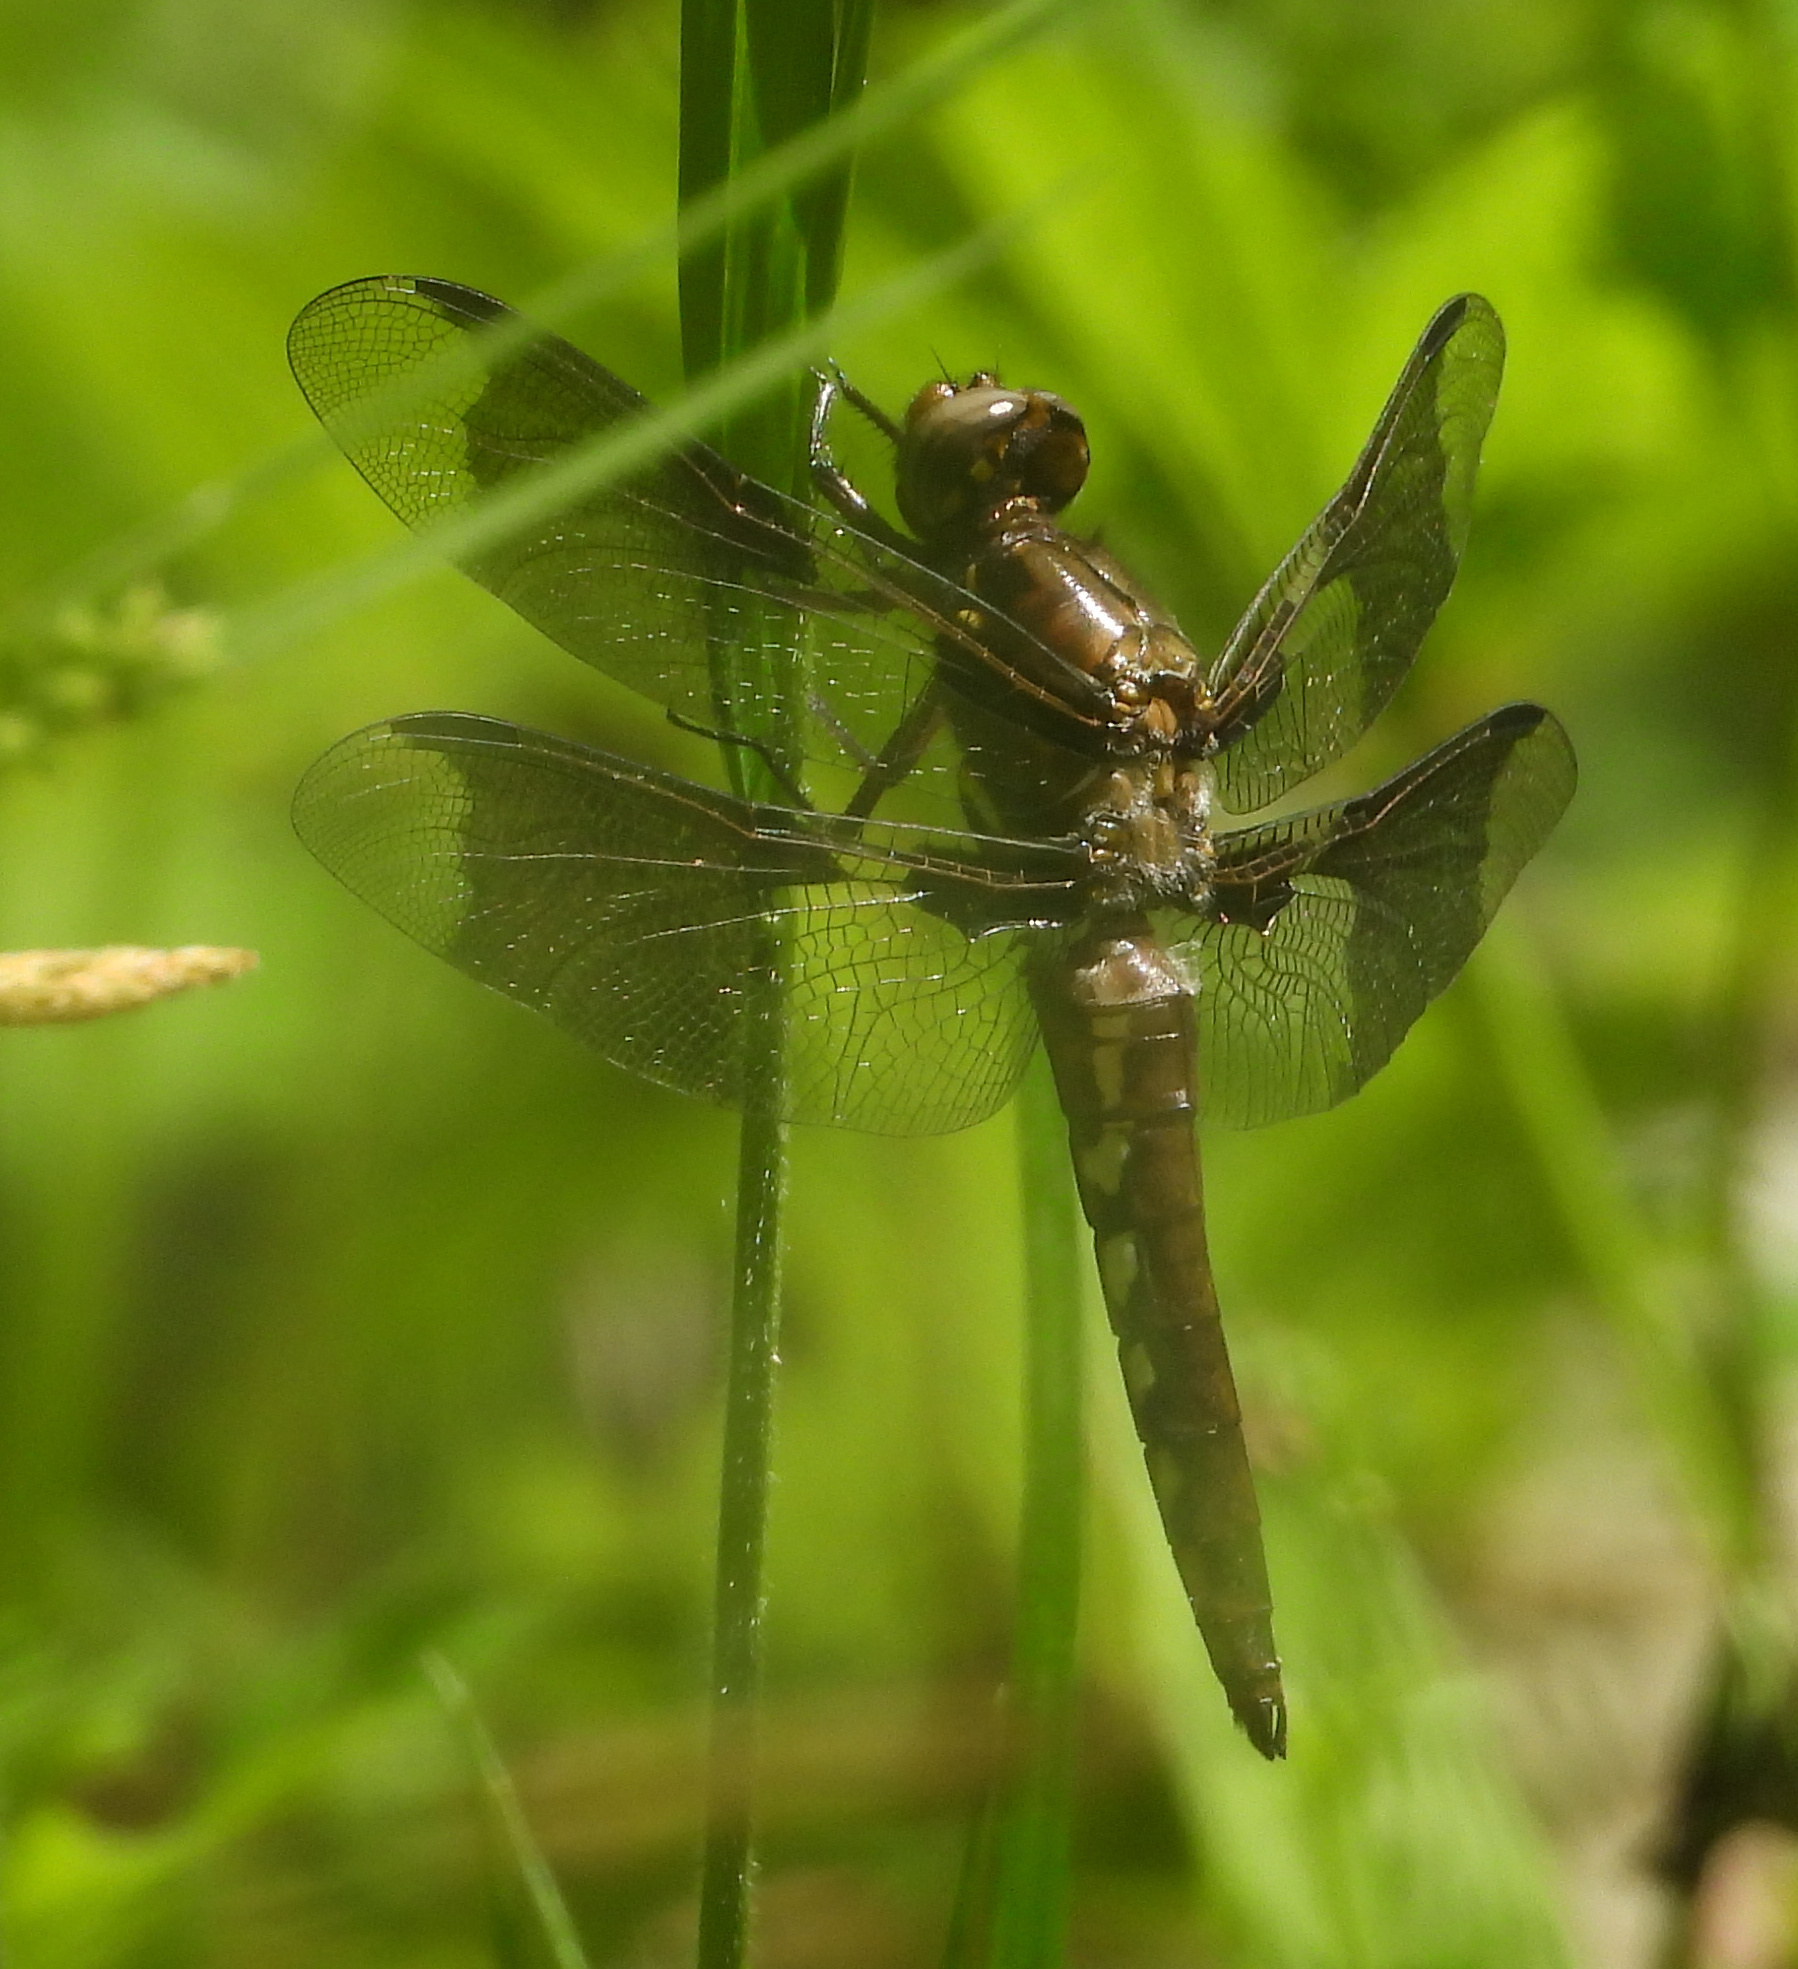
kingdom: Animalia
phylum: Arthropoda
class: Insecta
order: Odonata
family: Libellulidae
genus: Plathemis
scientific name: Plathemis lydia
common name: Common whitetail
